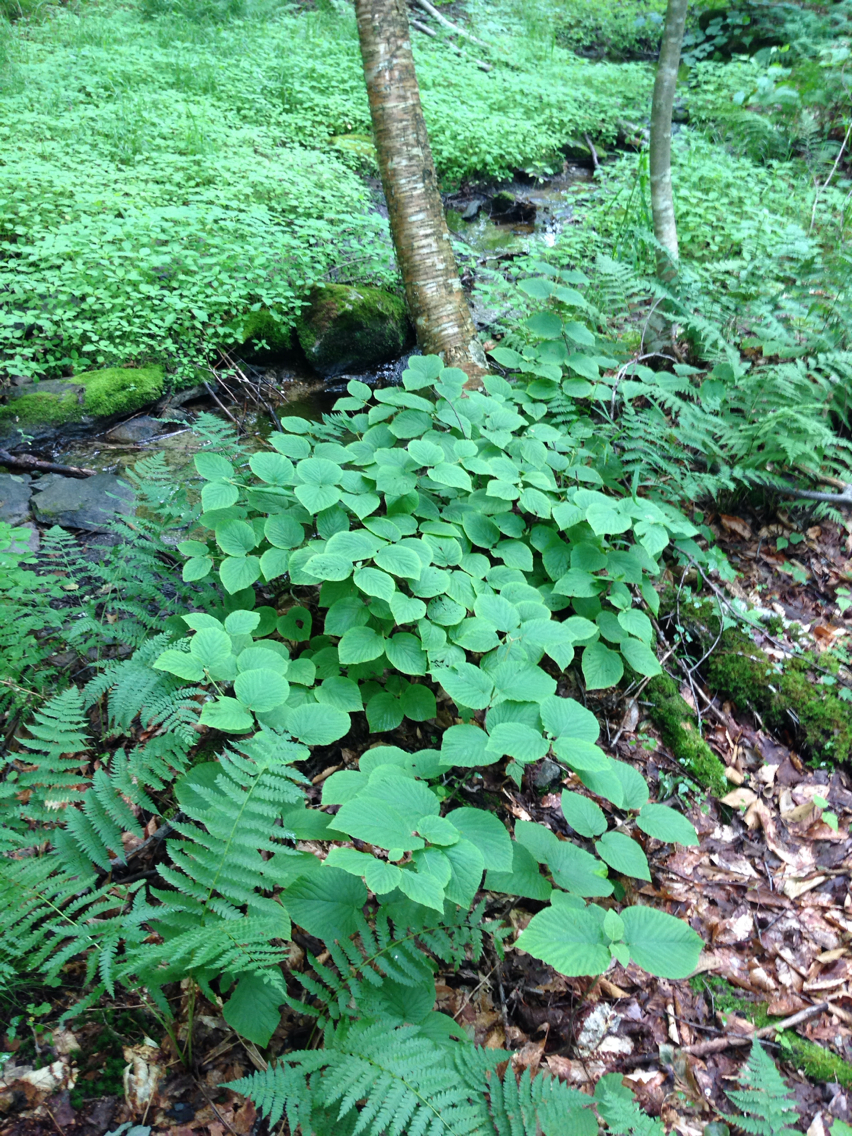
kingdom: Plantae
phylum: Tracheophyta
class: Magnoliopsida
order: Dipsacales
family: Viburnaceae
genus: Viburnum
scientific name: Viburnum lantanoides
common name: Hobblebush
